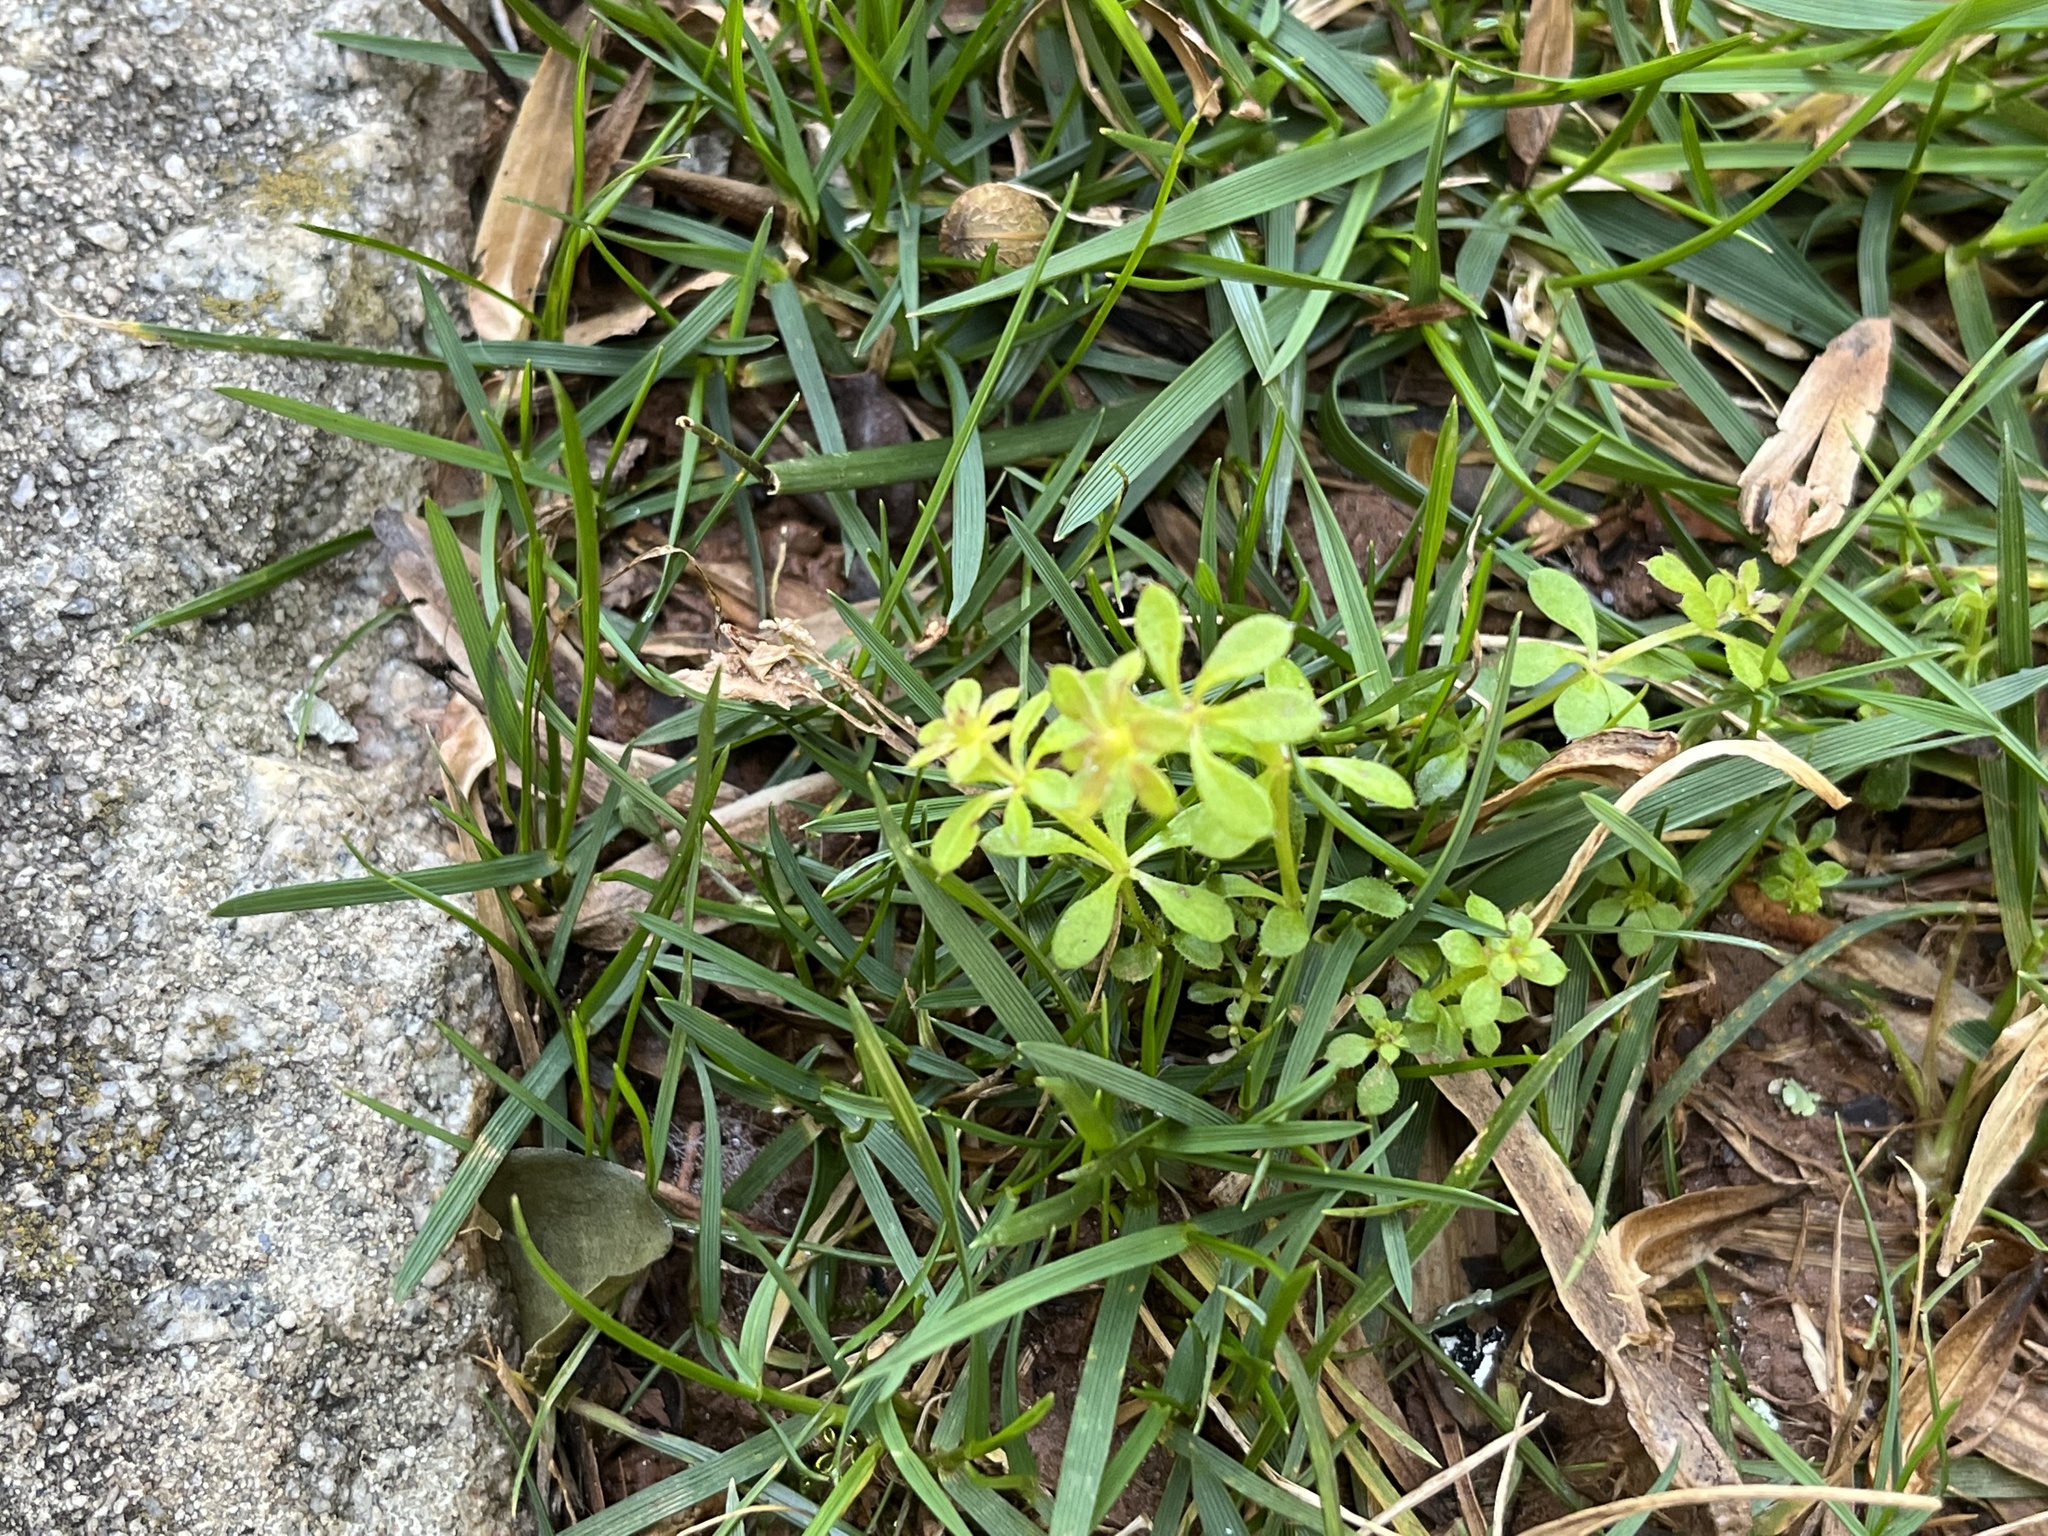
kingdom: Plantae
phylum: Tracheophyta
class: Magnoliopsida
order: Gentianales
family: Rubiaceae
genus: Galium
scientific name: Galium aparine
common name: Cleavers
